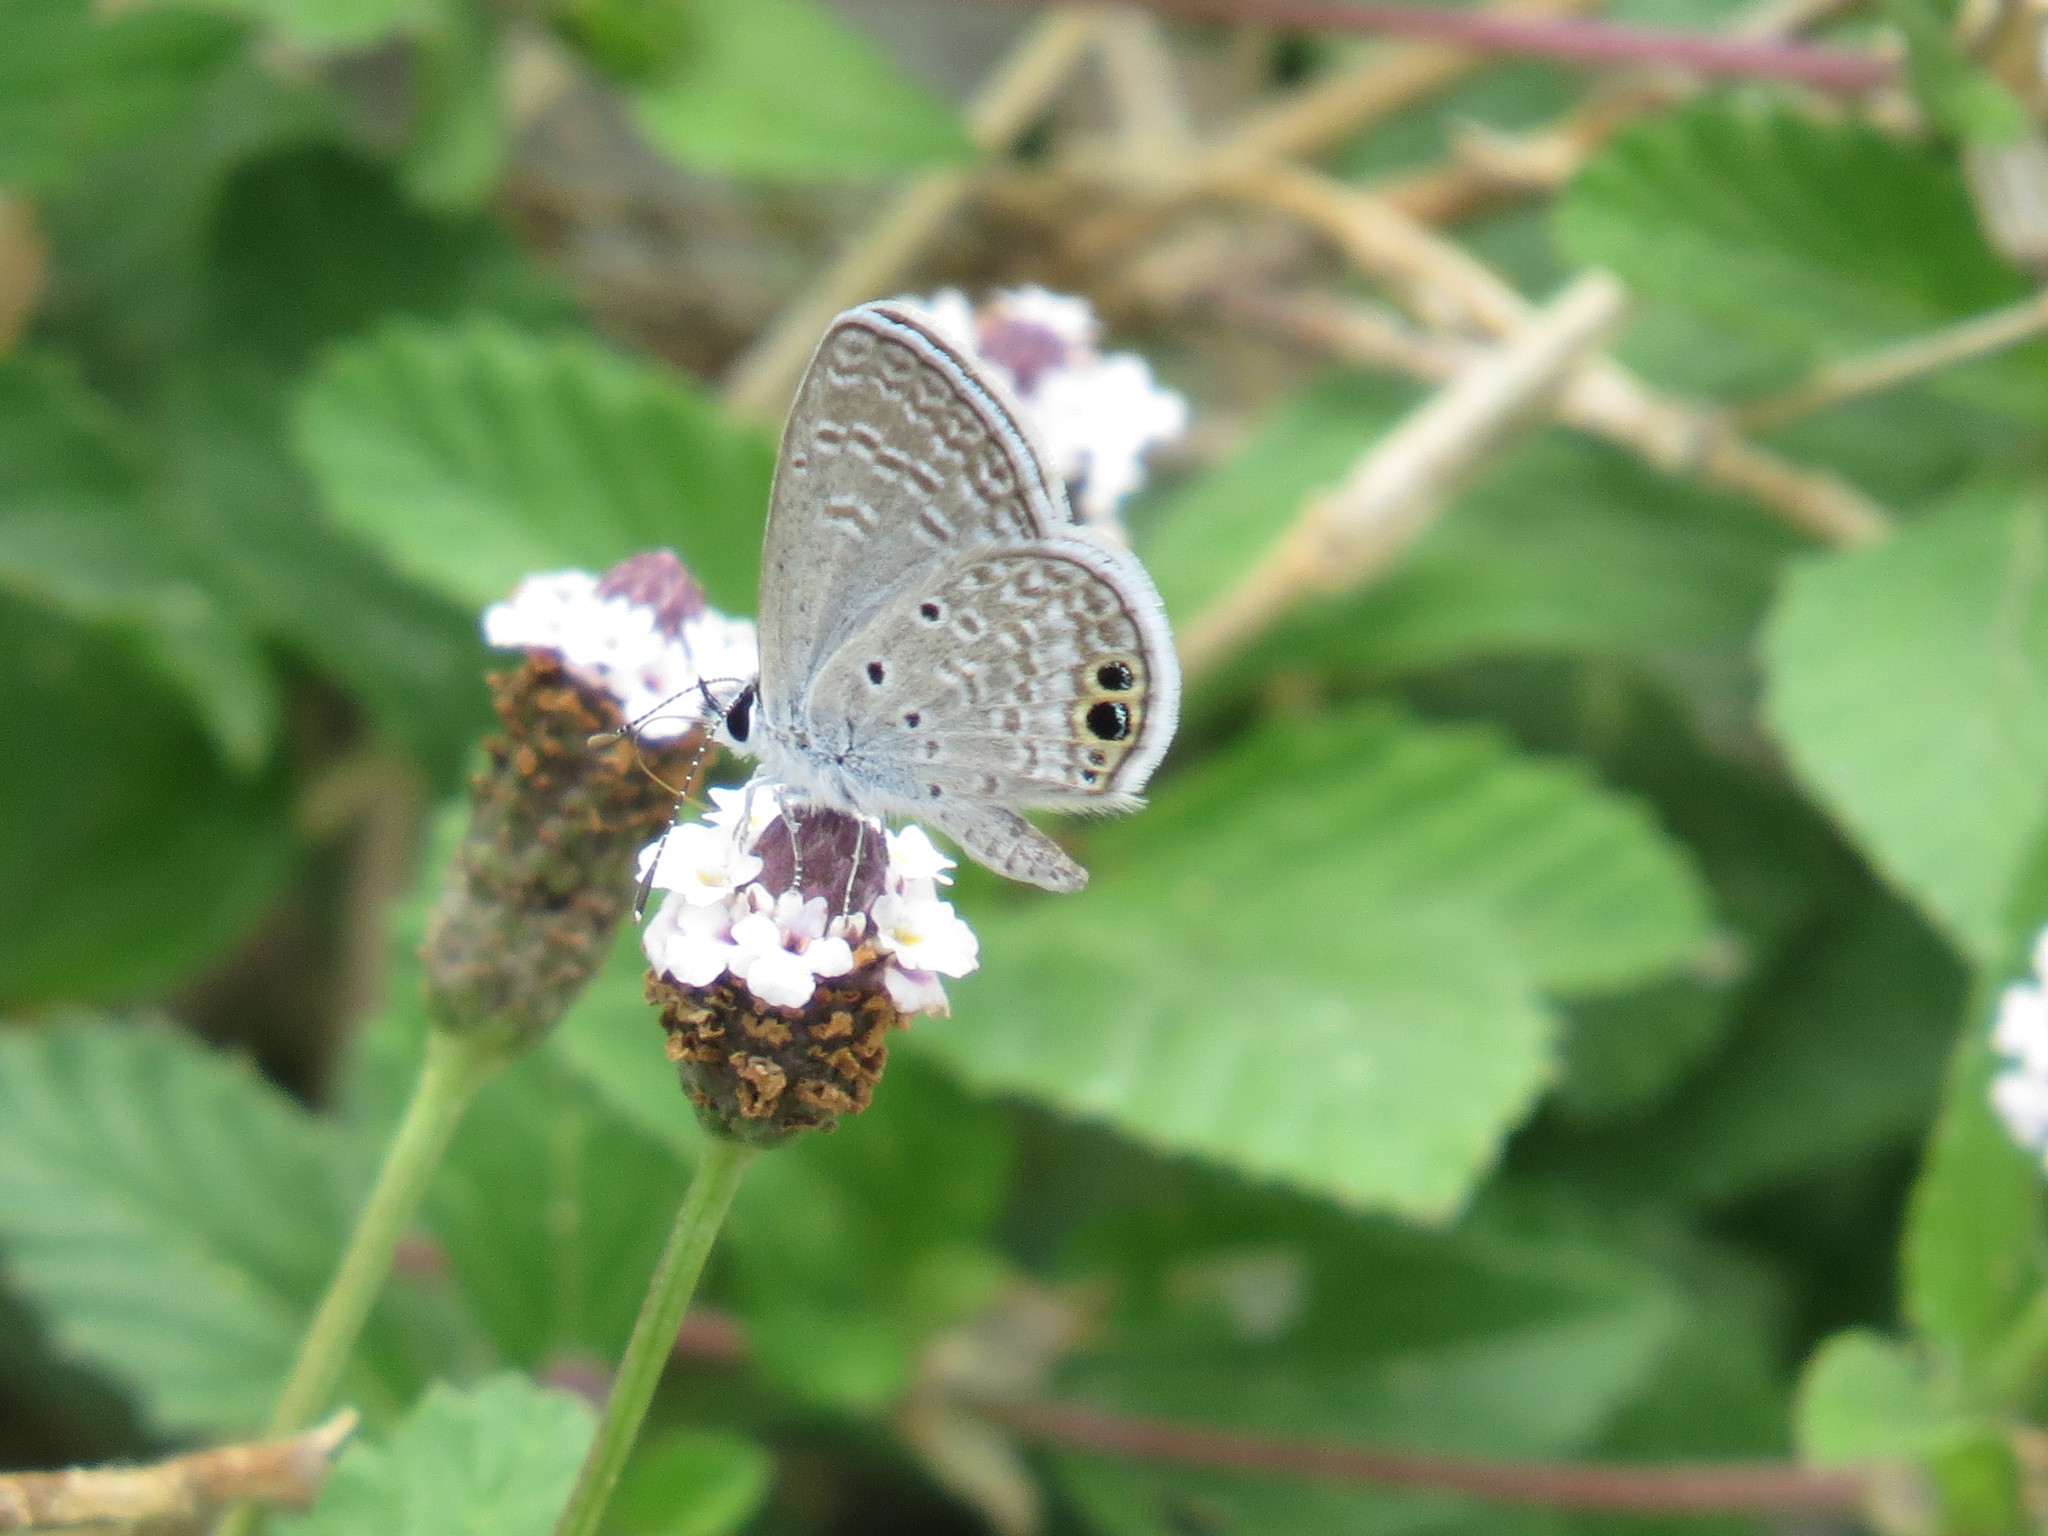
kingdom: Animalia
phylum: Arthropoda
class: Insecta
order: Lepidoptera
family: Lycaenidae
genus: Hemiargus
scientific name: Hemiargus ceraunus
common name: Ceraunus blue
